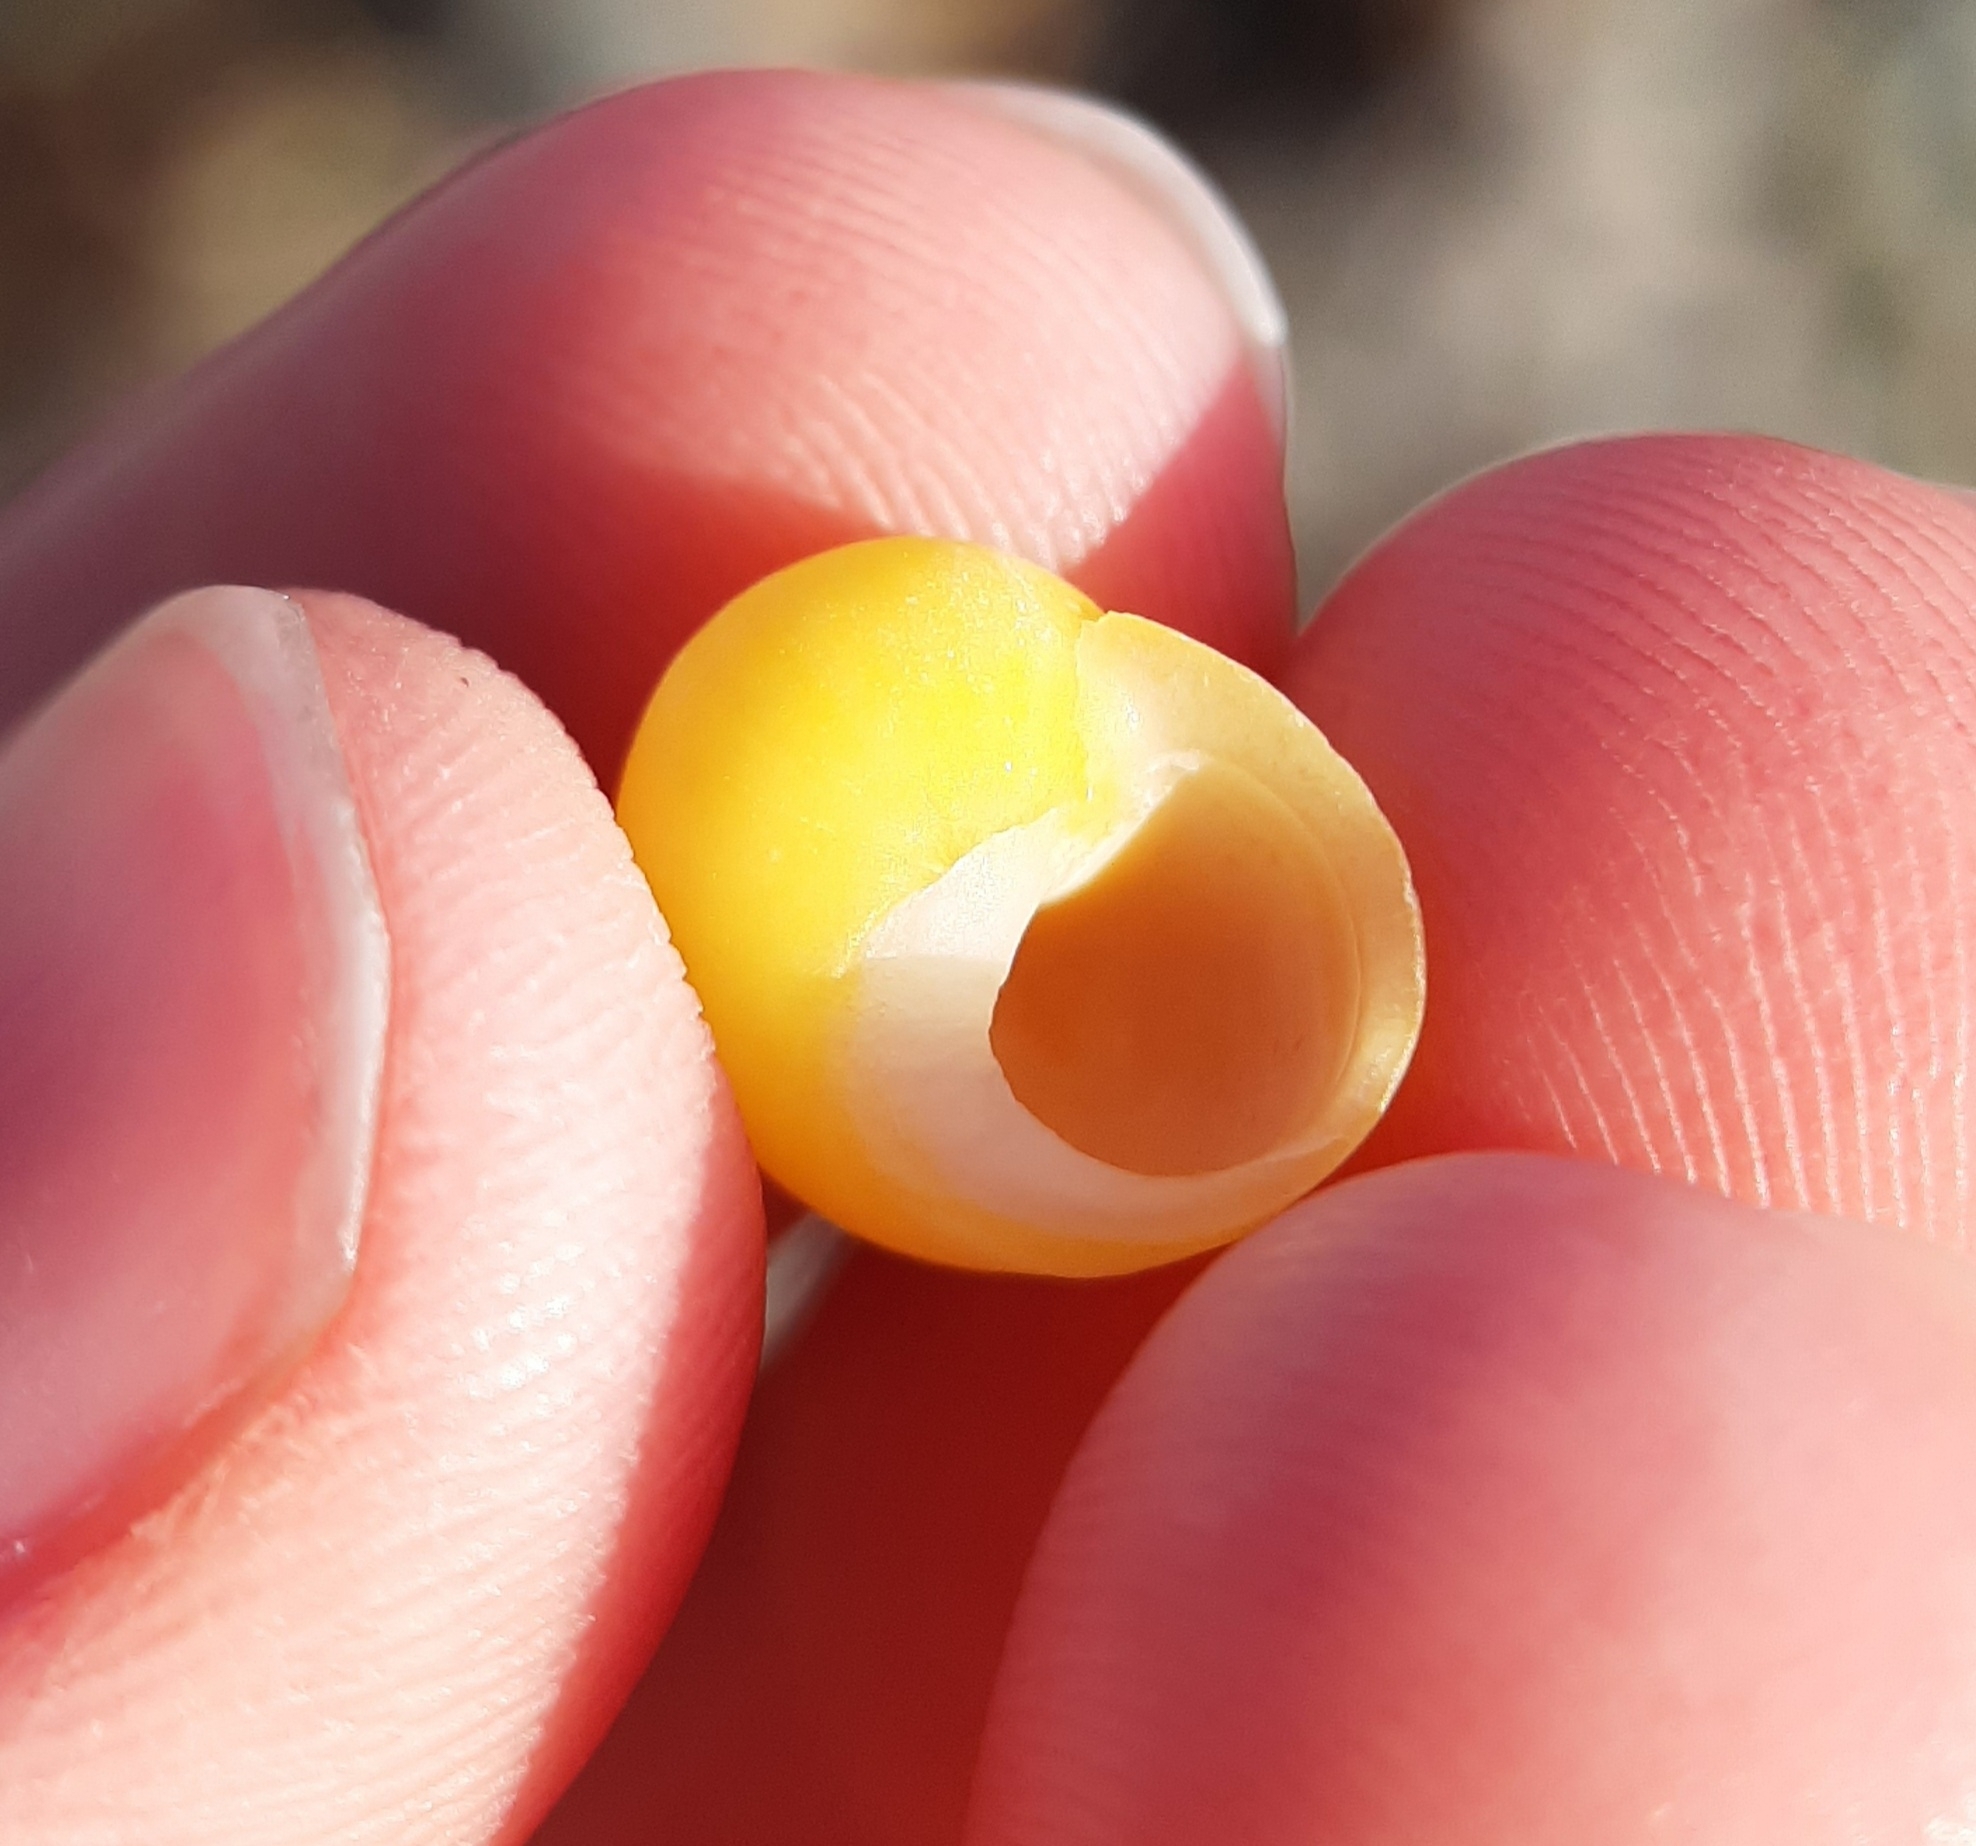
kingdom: Animalia
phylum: Mollusca
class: Gastropoda
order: Littorinimorpha
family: Littorinidae
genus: Littorina
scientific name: Littorina obtusata
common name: Flat periwinkle
